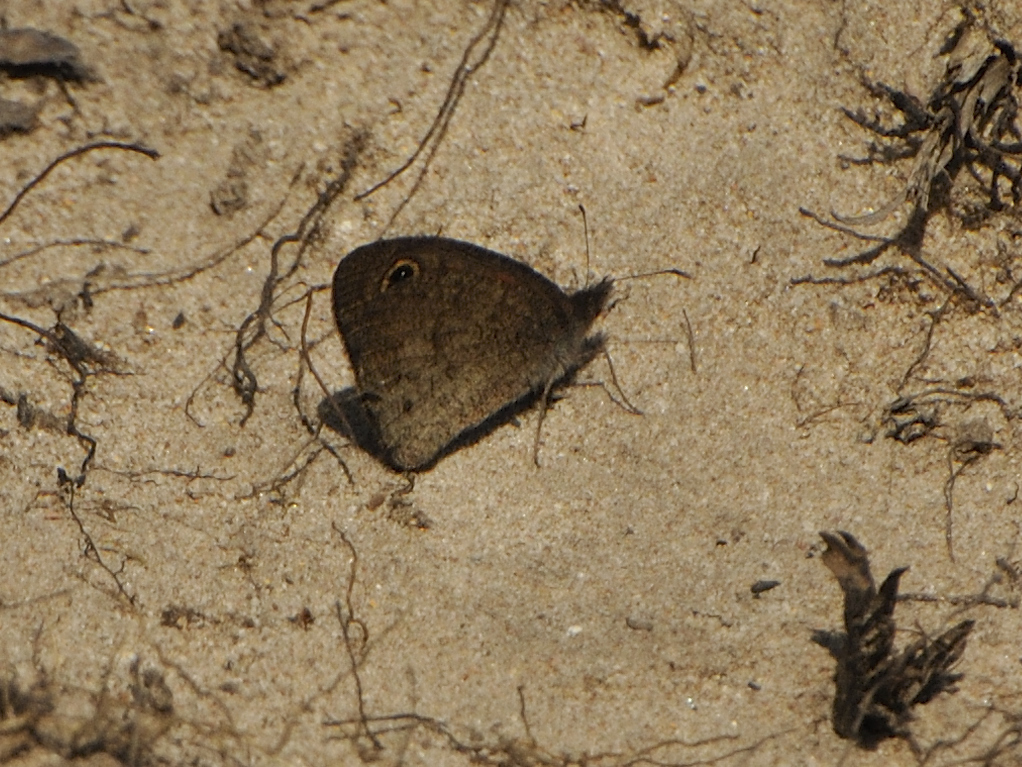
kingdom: Animalia
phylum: Arthropoda
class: Insecta
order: Lepidoptera
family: Nymphalidae
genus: Cassionympha
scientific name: Cassionympha cassius
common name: Rainforest brown
